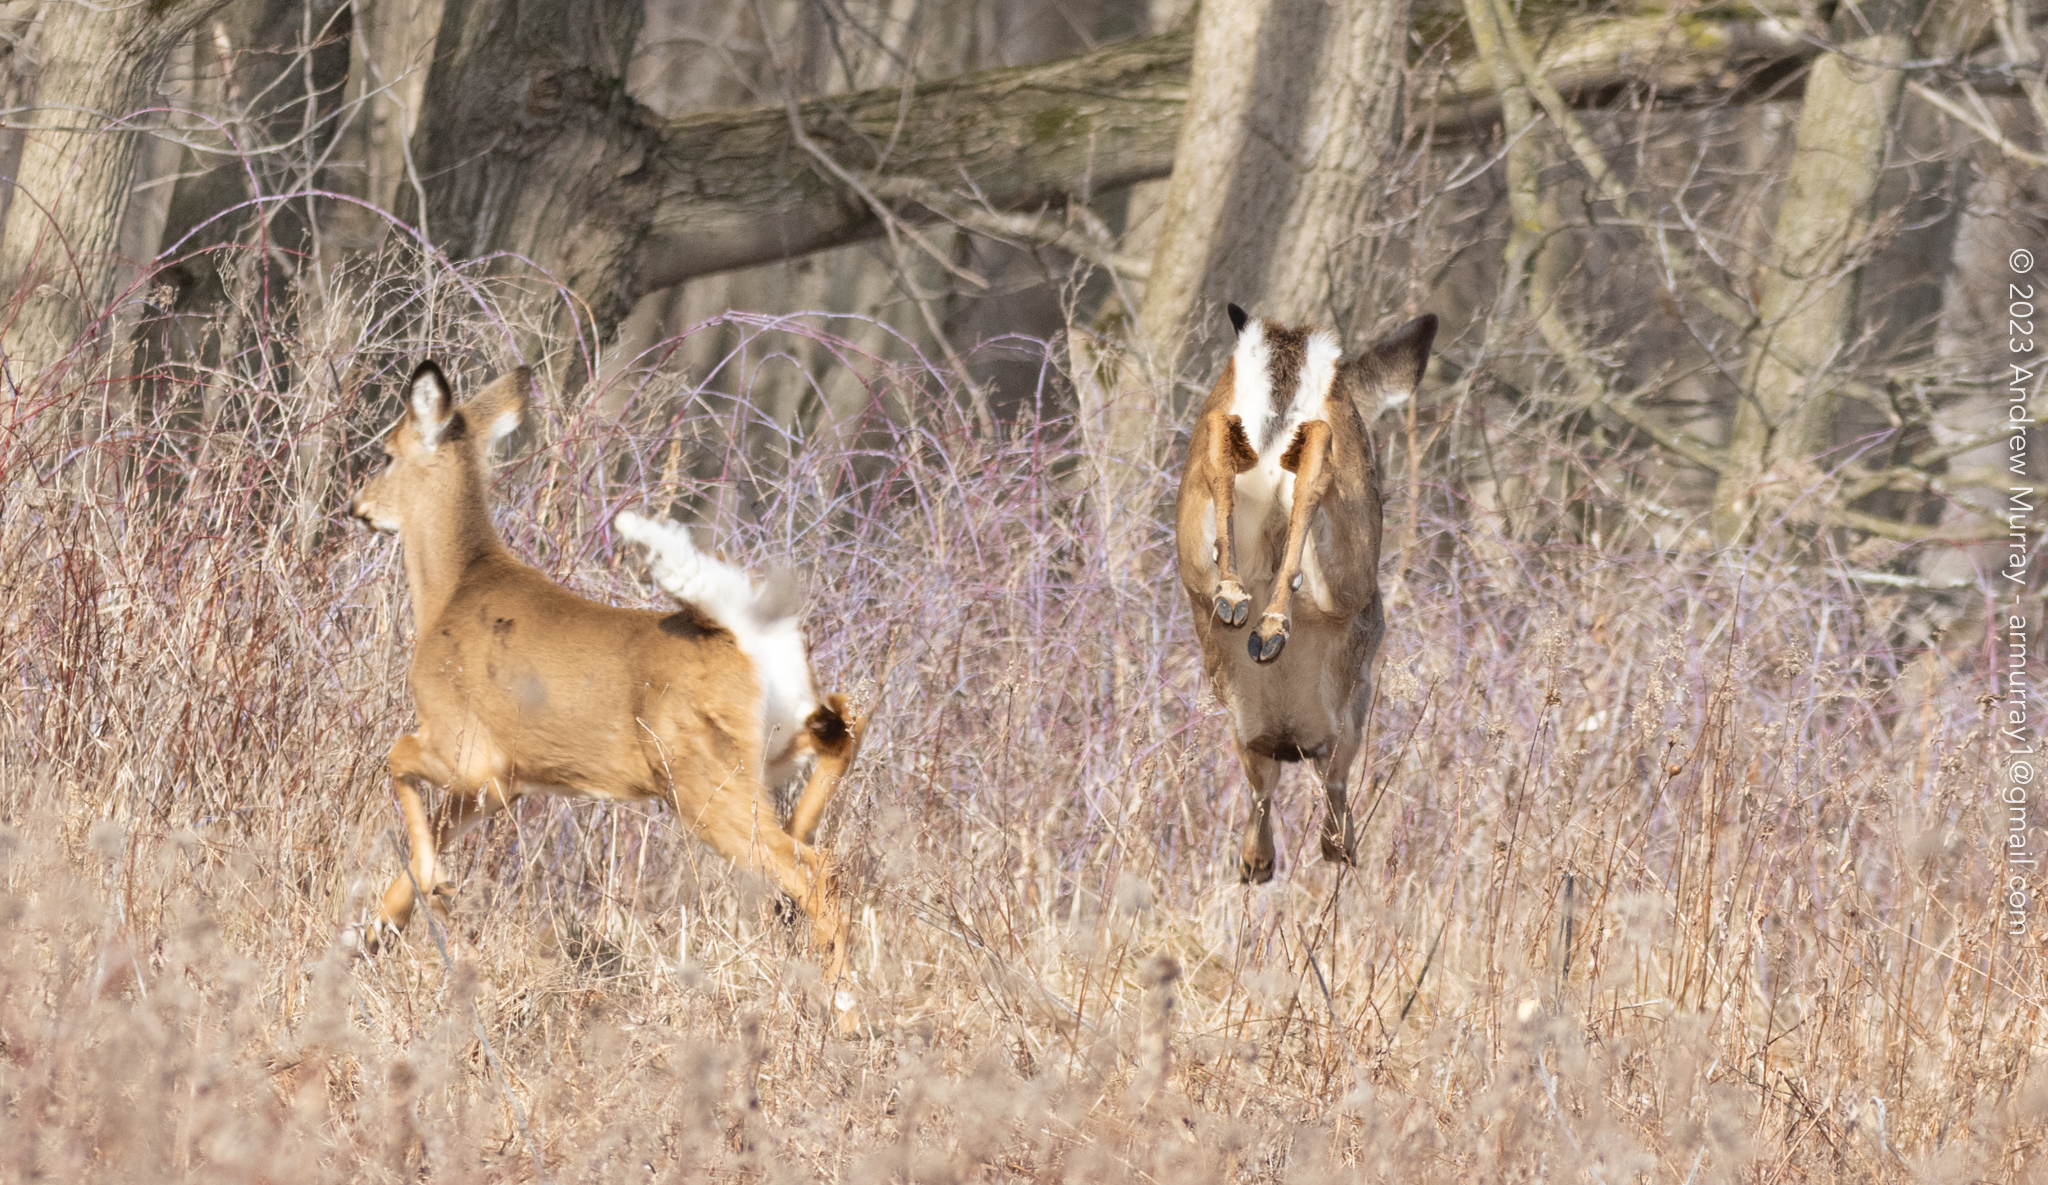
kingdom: Animalia
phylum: Chordata
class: Mammalia
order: Artiodactyla
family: Cervidae
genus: Odocoileus
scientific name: Odocoileus virginianus
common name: White-tailed deer
